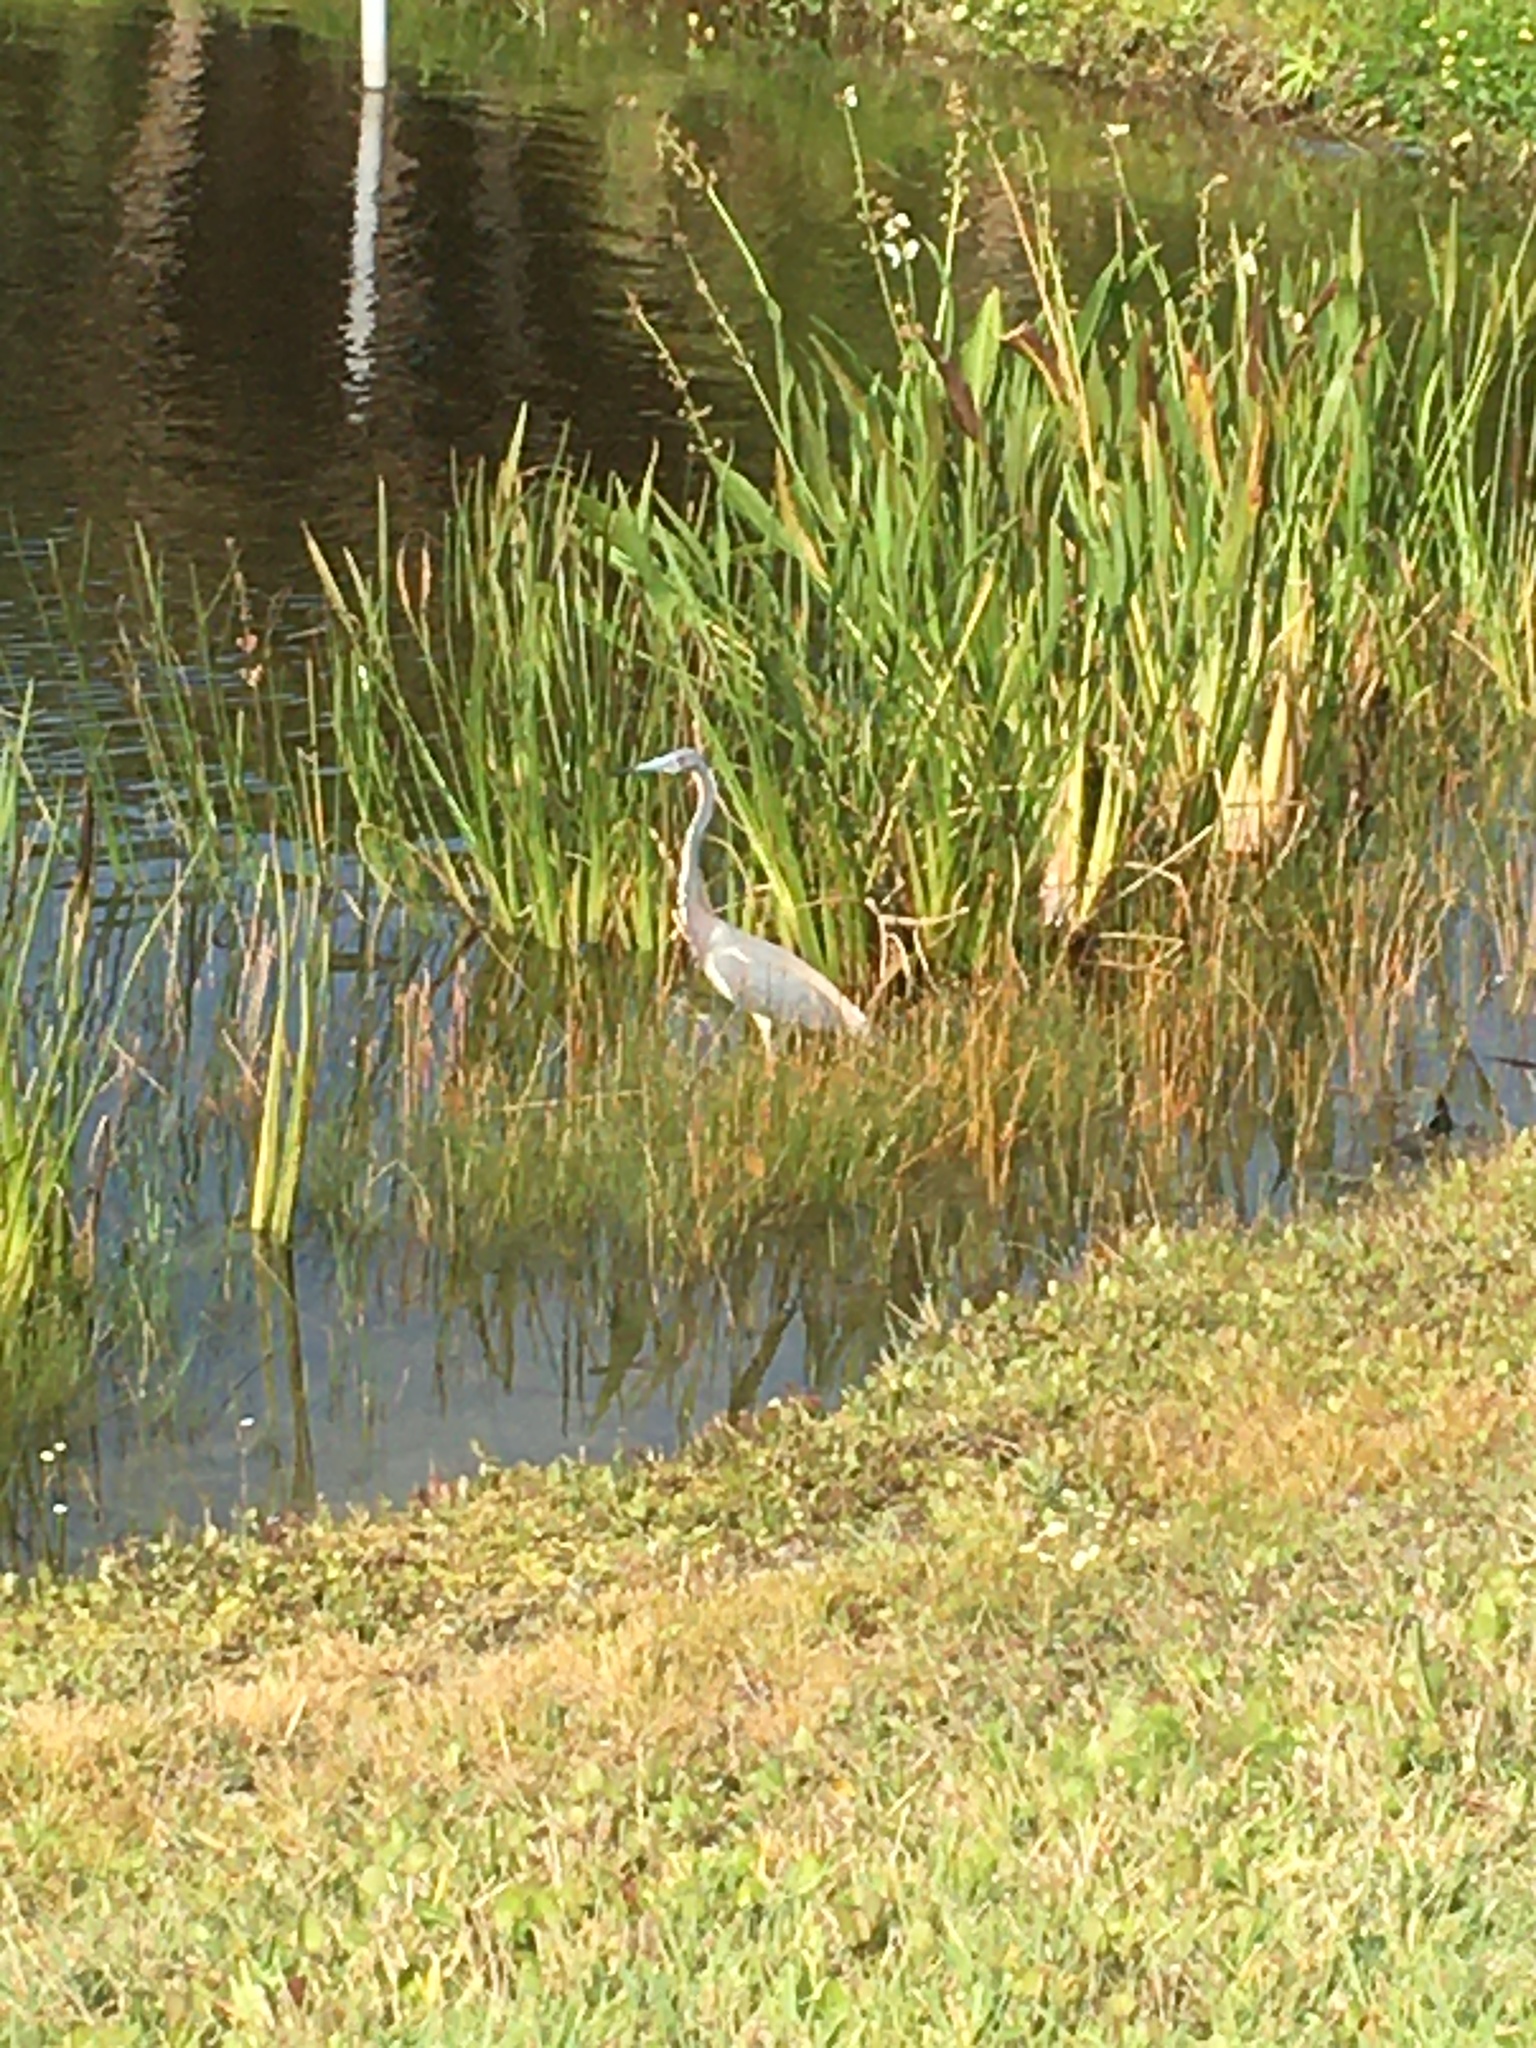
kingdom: Animalia
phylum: Chordata
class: Aves
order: Pelecaniformes
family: Ardeidae
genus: Egretta
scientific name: Egretta tricolor
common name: Tricolored heron
